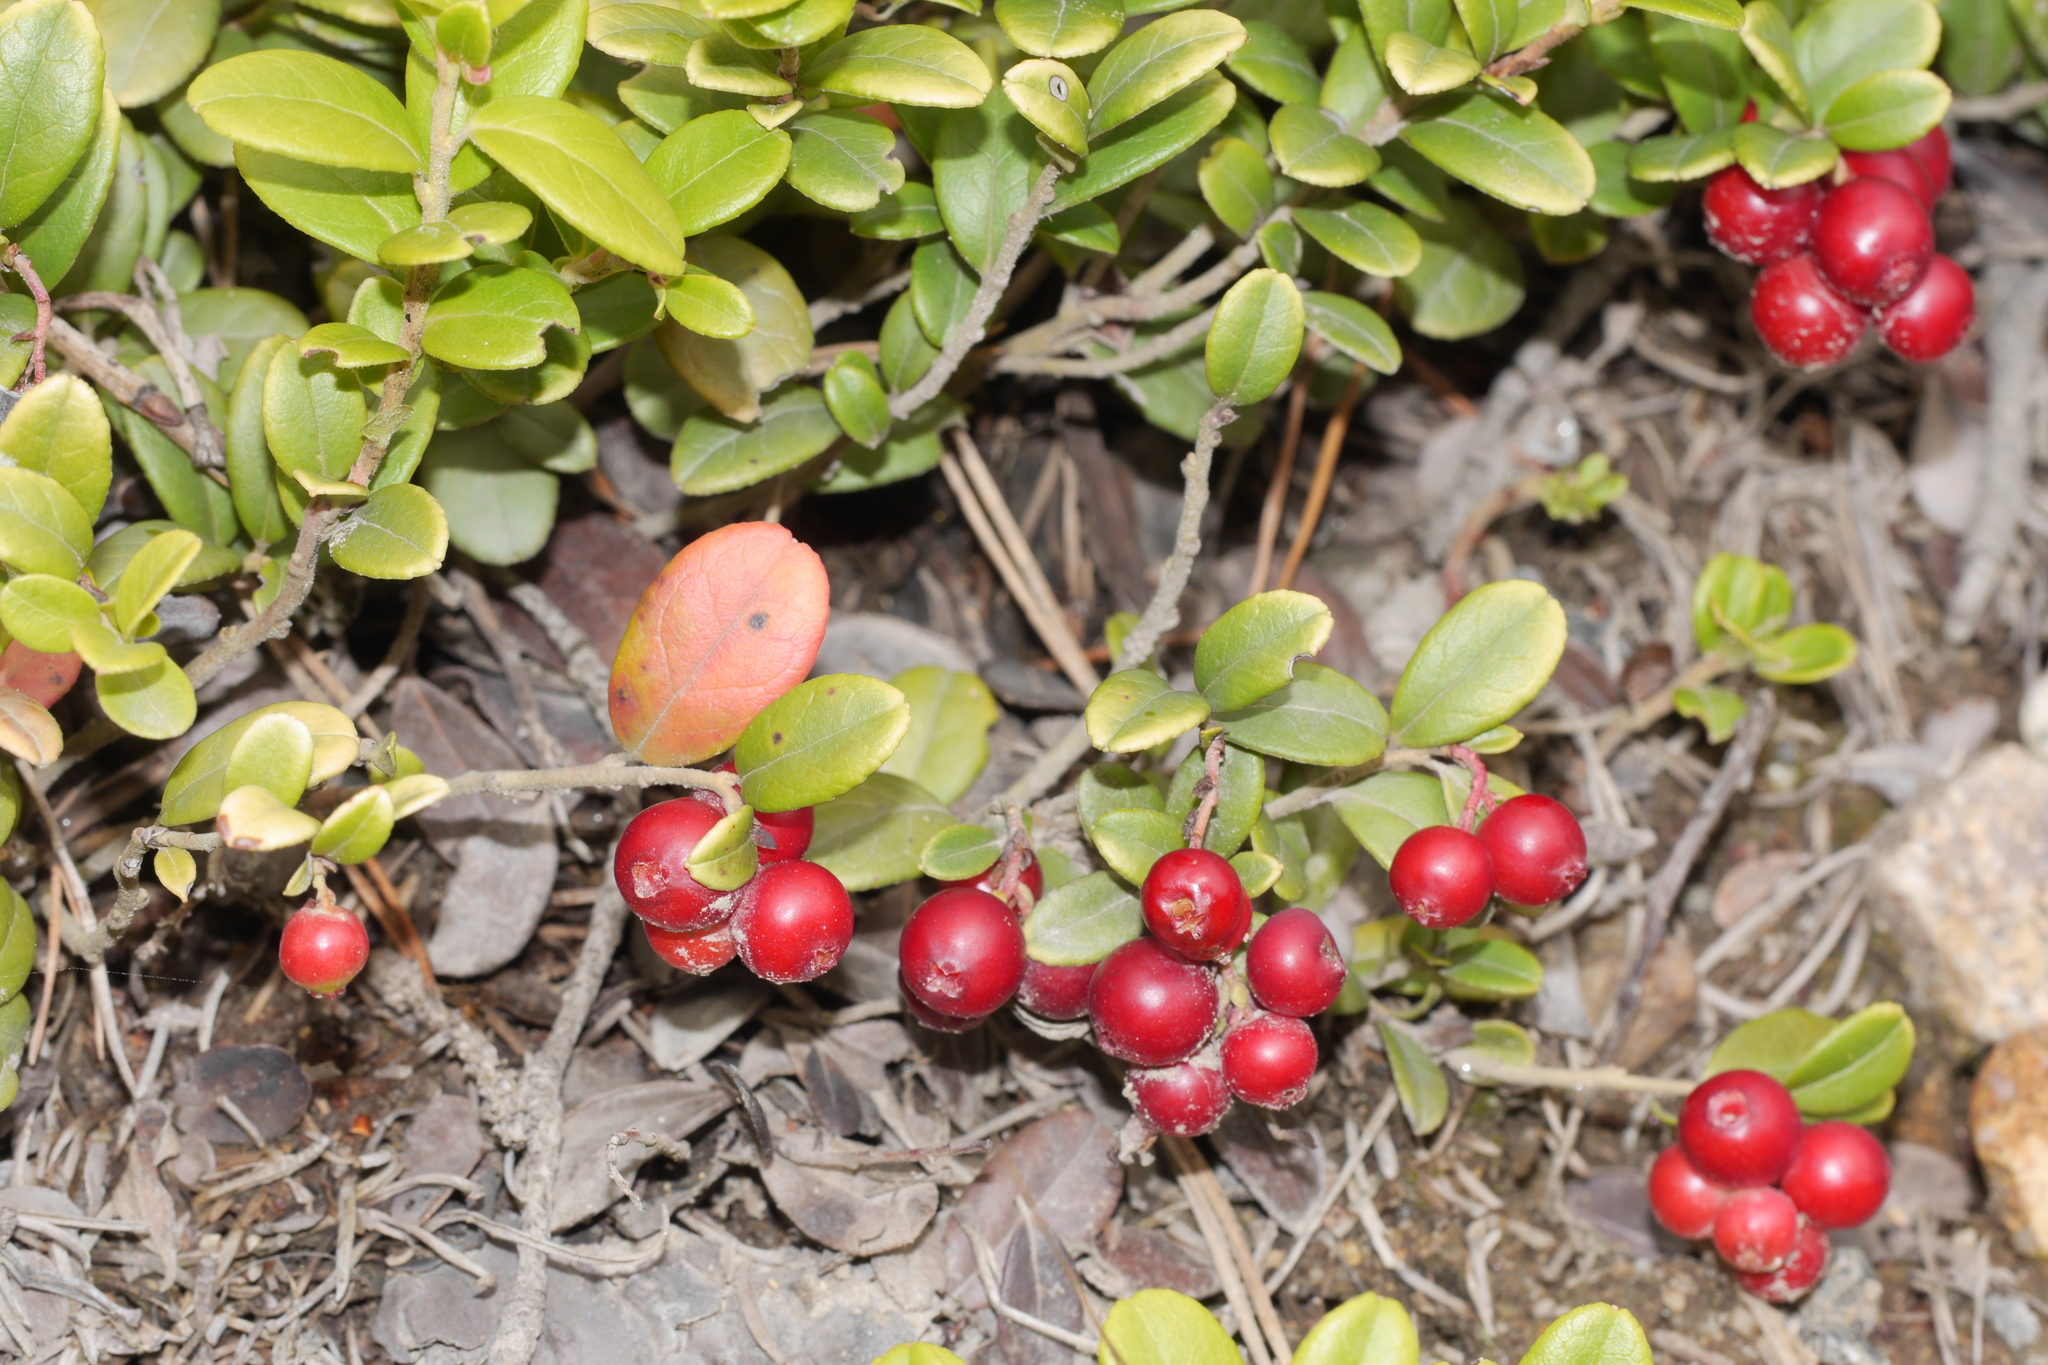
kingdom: Plantae
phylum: Tracheophyta
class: Magnoliopsida
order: Ericales
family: Ericaceae
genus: Vaccinium
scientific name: Vaccinium vitis-idaea
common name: Cowberry
